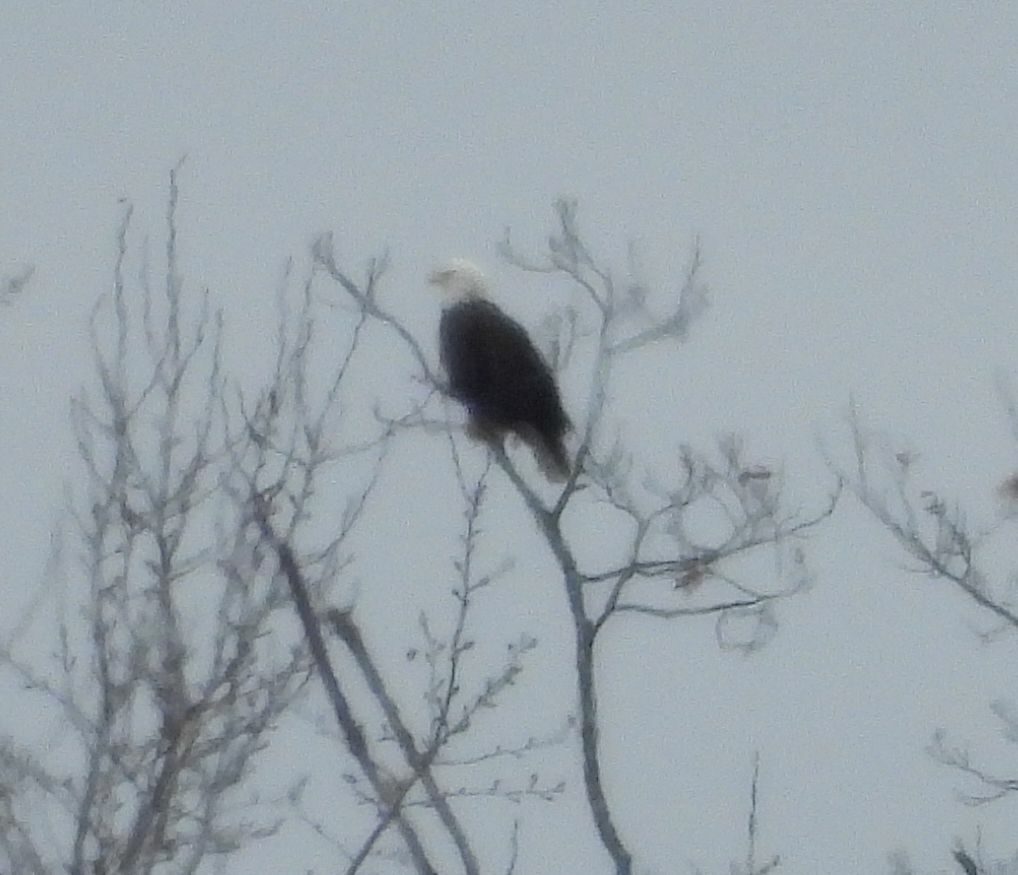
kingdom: Animalia
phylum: Chordata
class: Aves
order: Accipitriformes
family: Accipitridae
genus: Haliaeetus
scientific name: Haliaeetus leucocephalus
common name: Bald eagle
